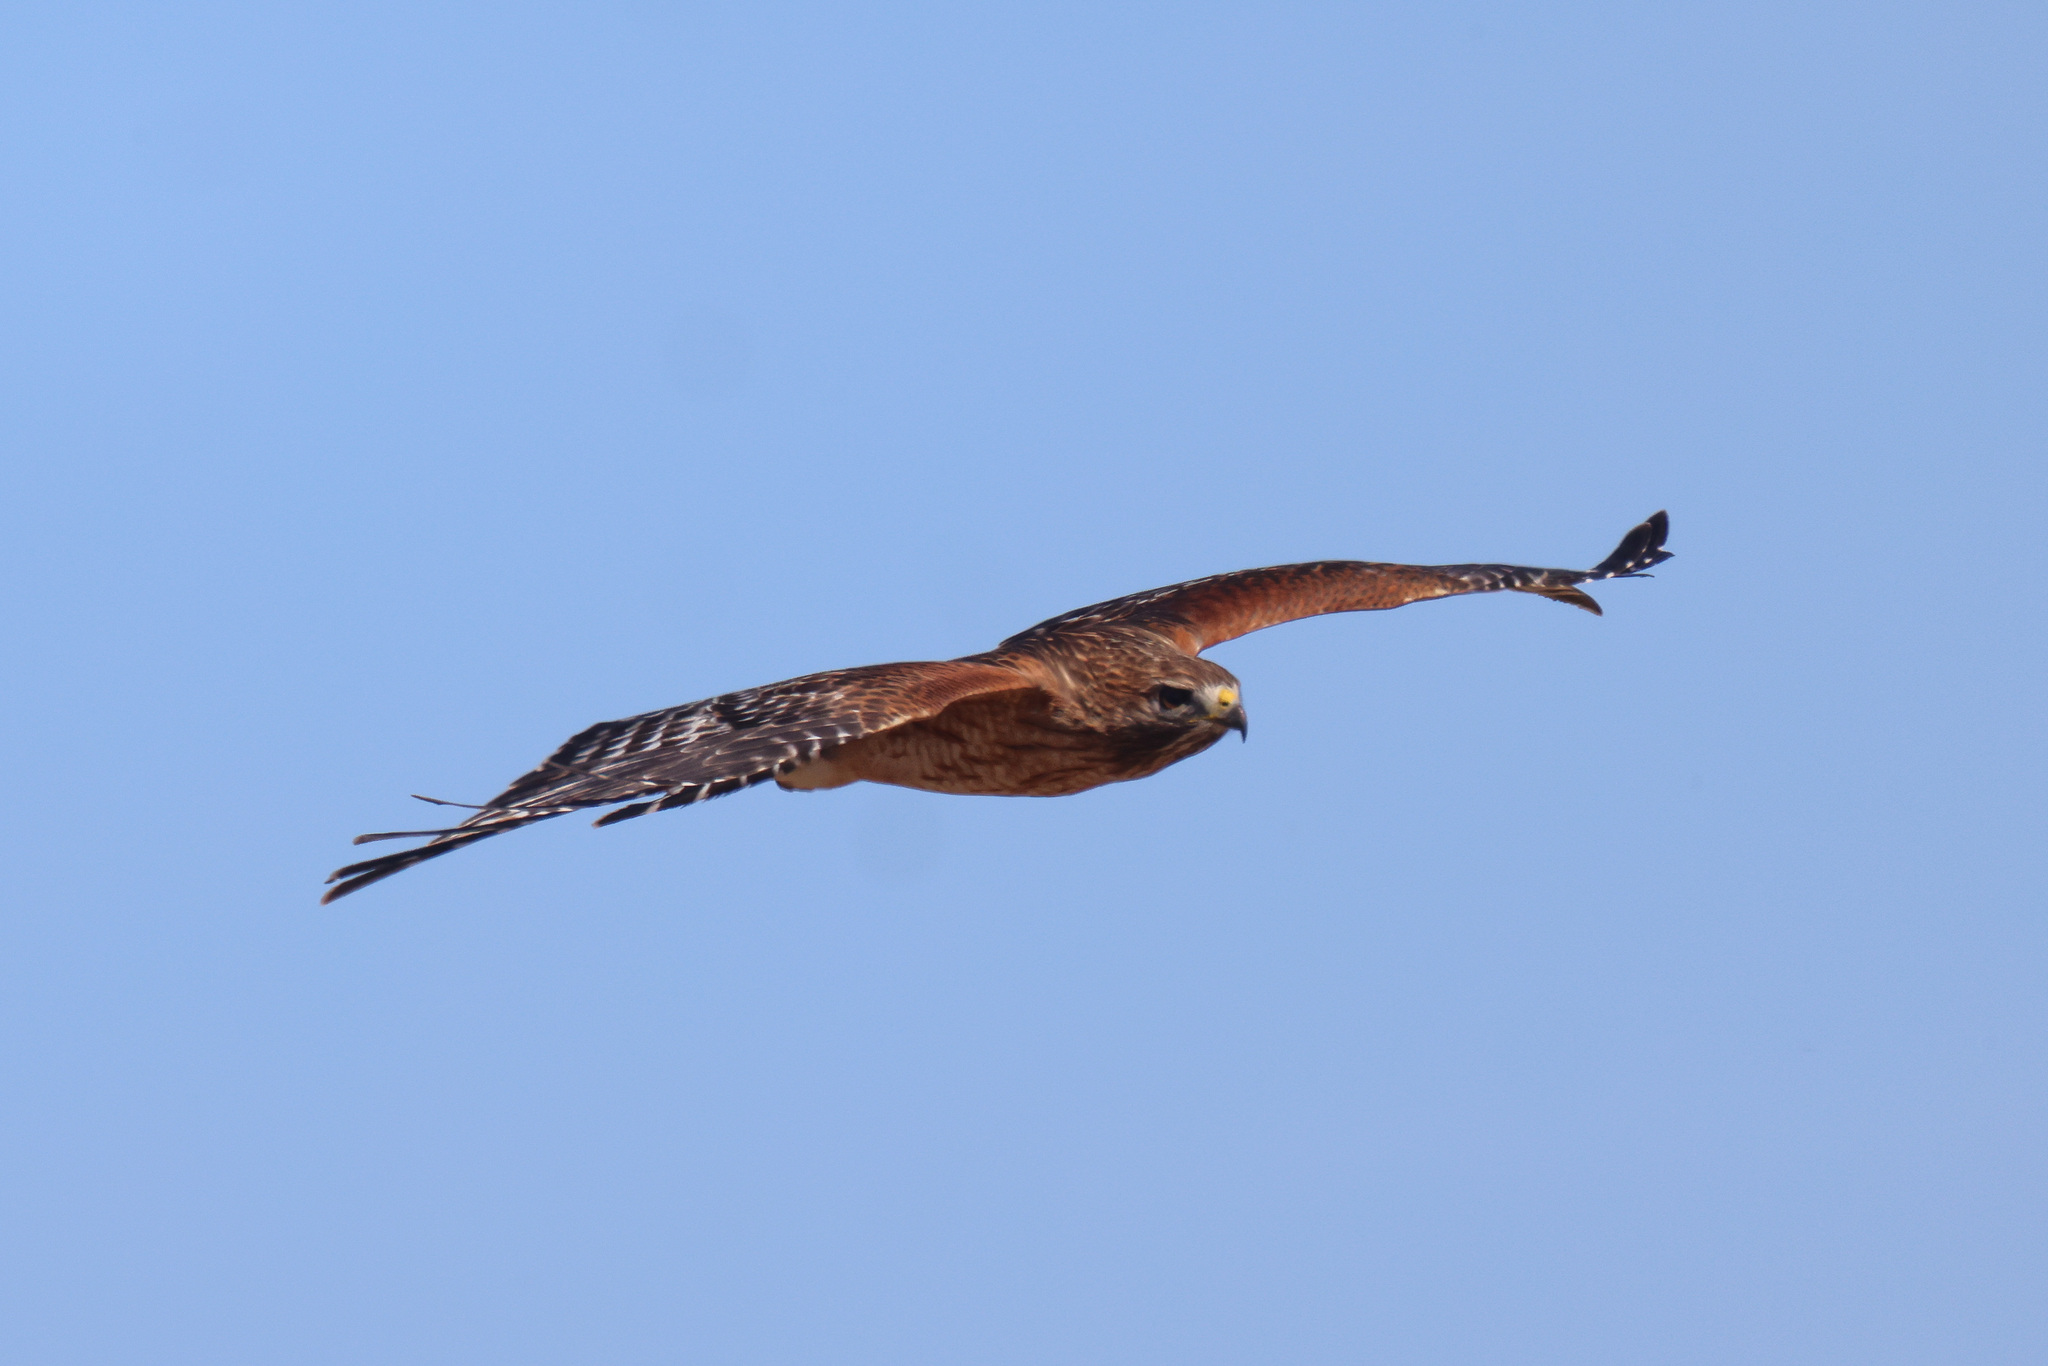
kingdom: Animalia
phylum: Chordata
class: Aves
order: Accipitriformes
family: Accipitridae
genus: Buteo
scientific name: Buteo lineatus
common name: Red-shouldered hawk
